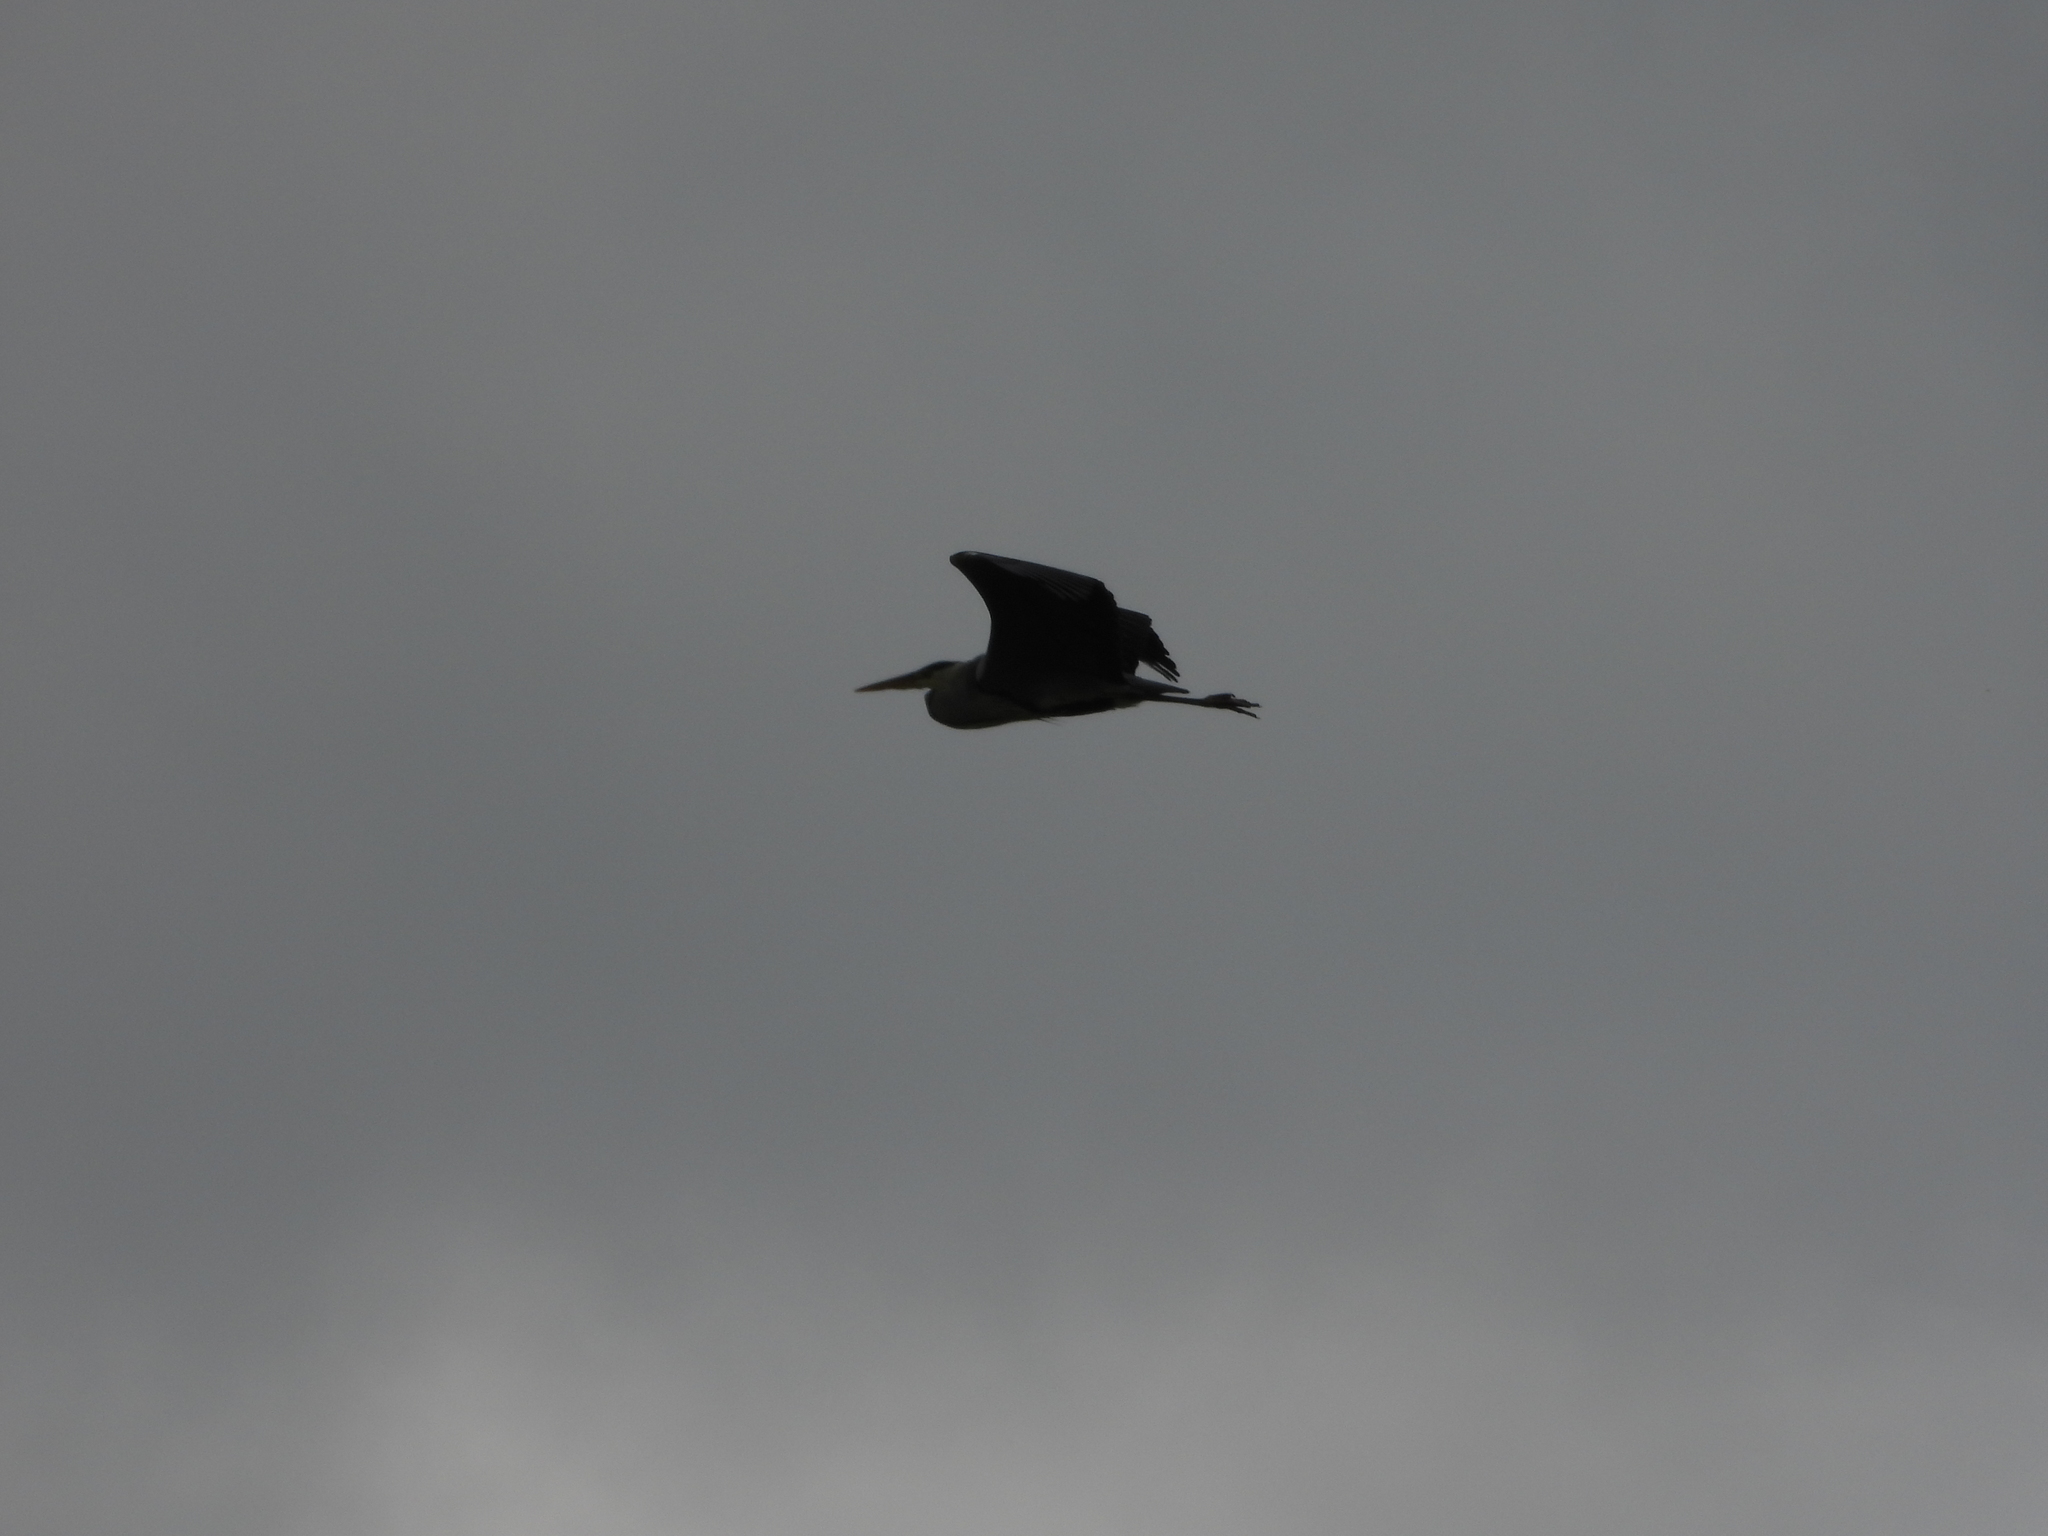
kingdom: Animalia
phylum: Chordata
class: Aves
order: Pelecaniformes
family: Ardeidae
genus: Ardea
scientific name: Ardea cinerea
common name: Grey heron
